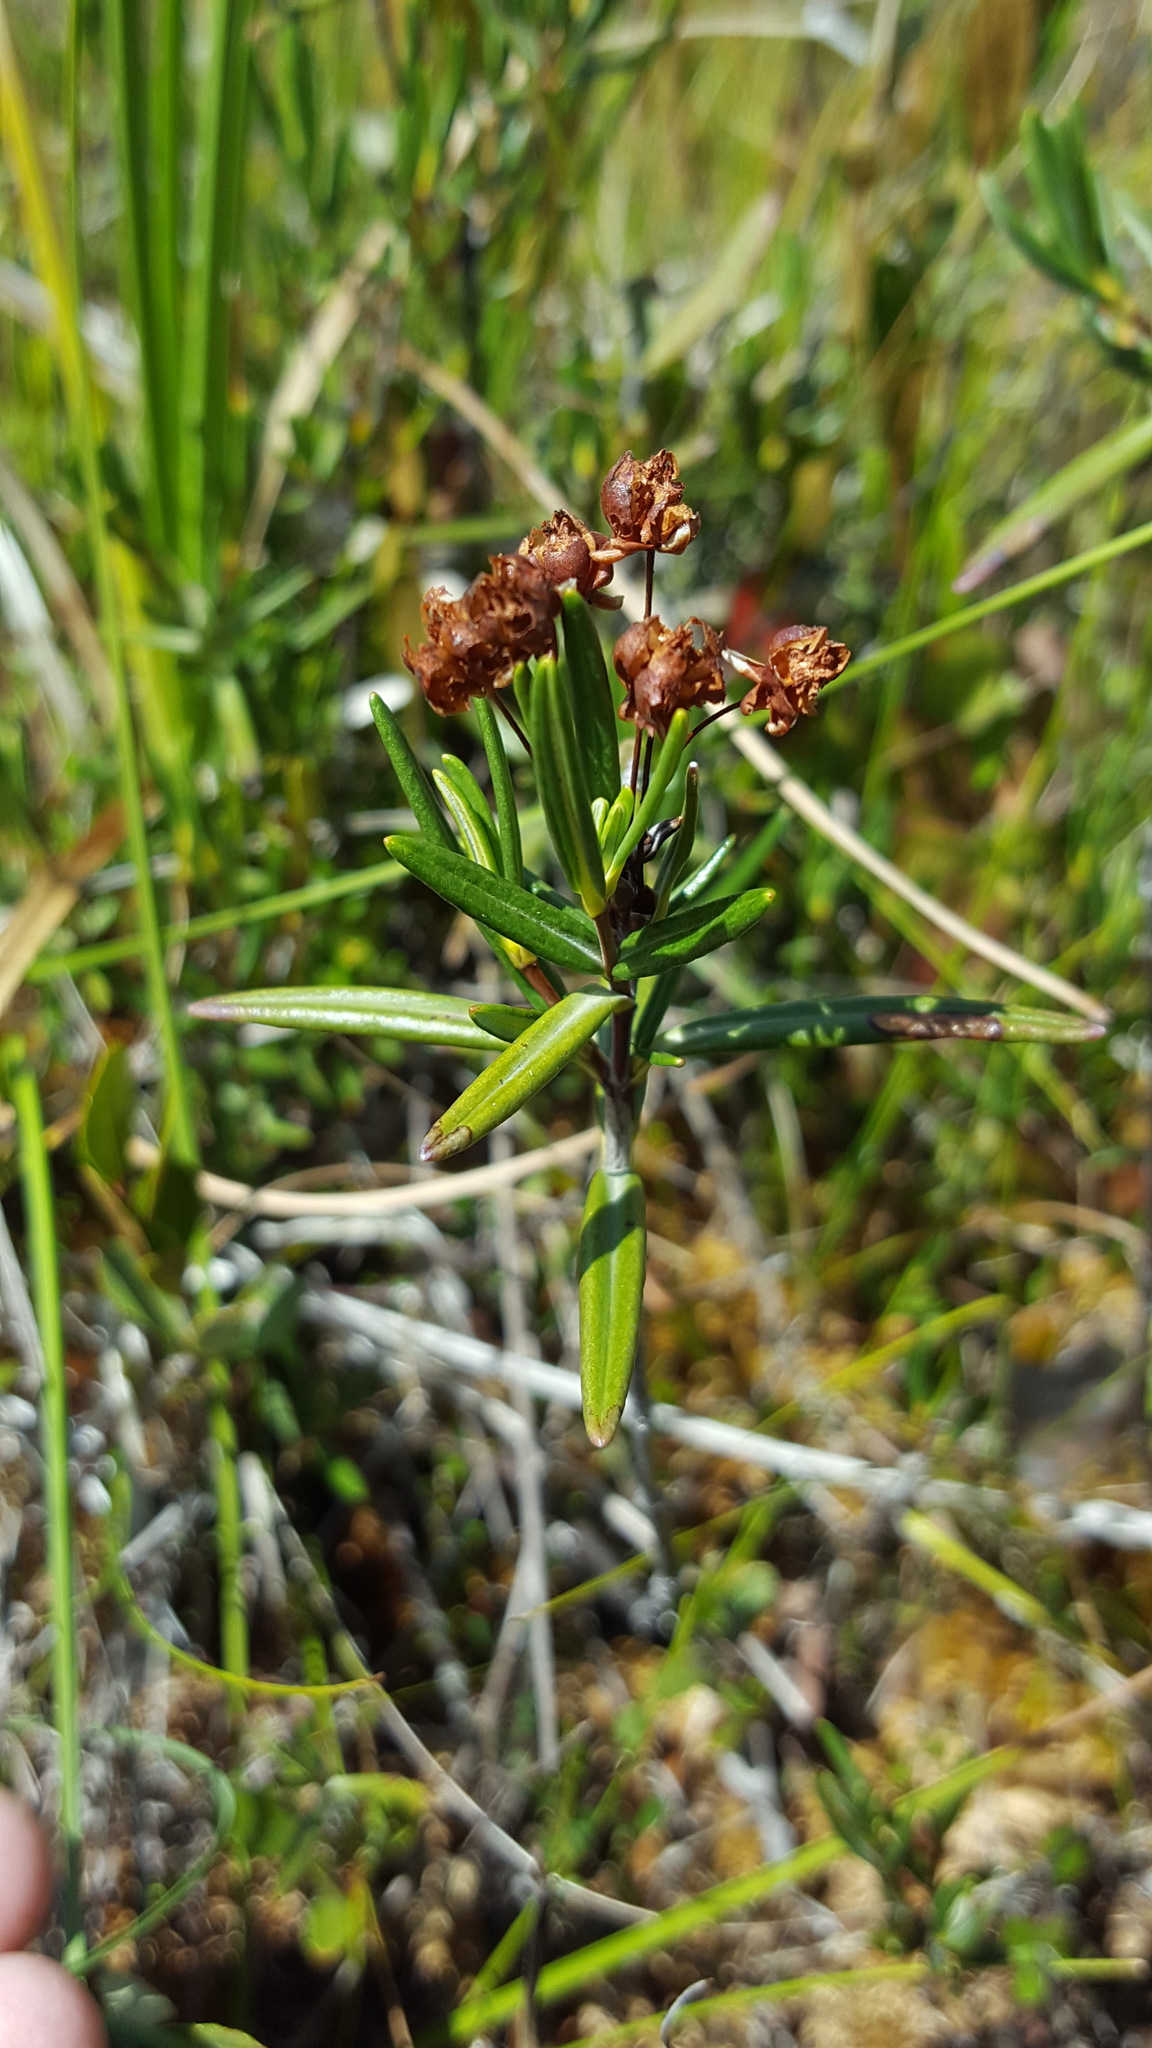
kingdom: Plantae
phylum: Tracheophyta
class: Magnoliopsida
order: Ericales
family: Ericaceae
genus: Kalmia
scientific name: Kalmia polifolia
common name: Bog-laurel
